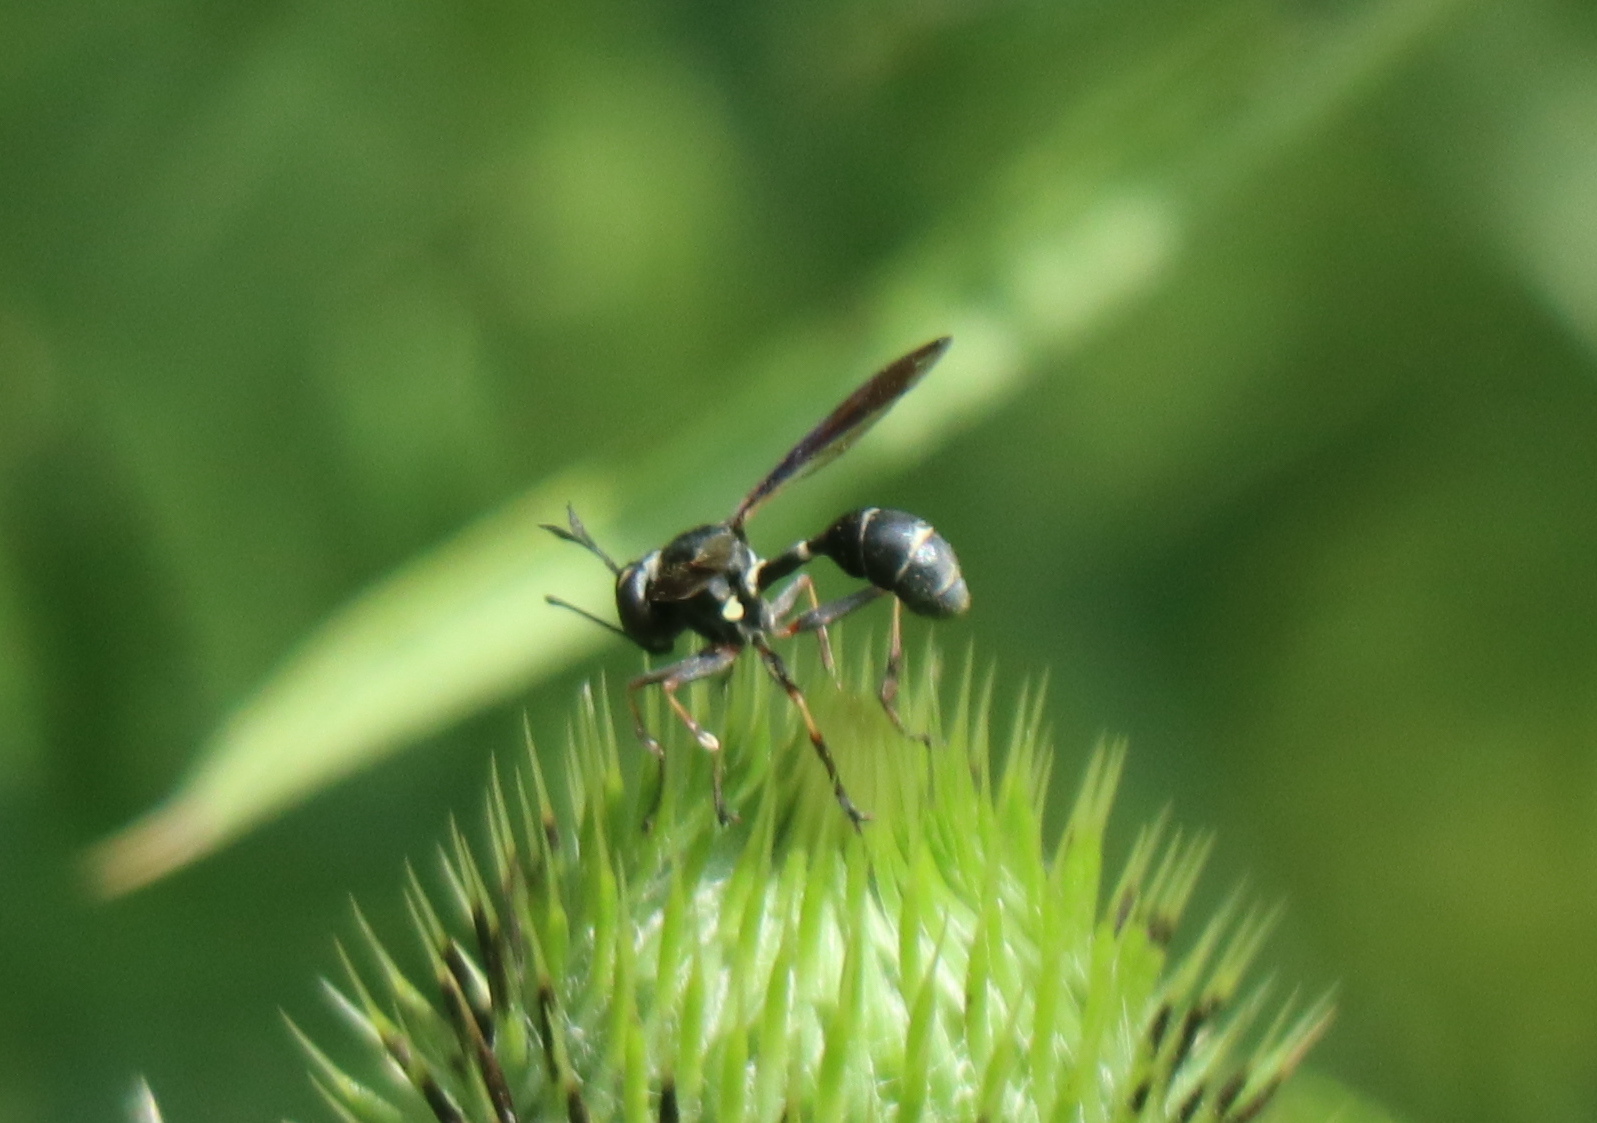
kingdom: Animalia
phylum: Arthropoda
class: Insecta
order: Diptera
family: Conopidae
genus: Physocephala
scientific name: Physocephala tibialis
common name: Common eastern physocephala
